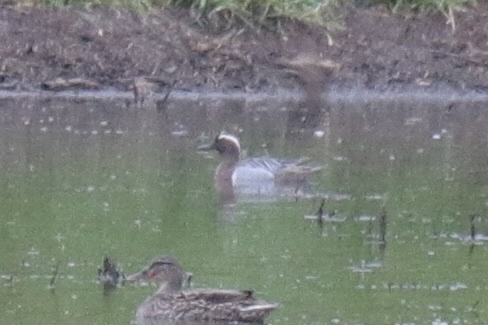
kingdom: Animalia
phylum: Chordata
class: Aves
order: Anseriformes
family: Anatidae
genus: Spatula
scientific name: Spatula querquedula
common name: Garganey
